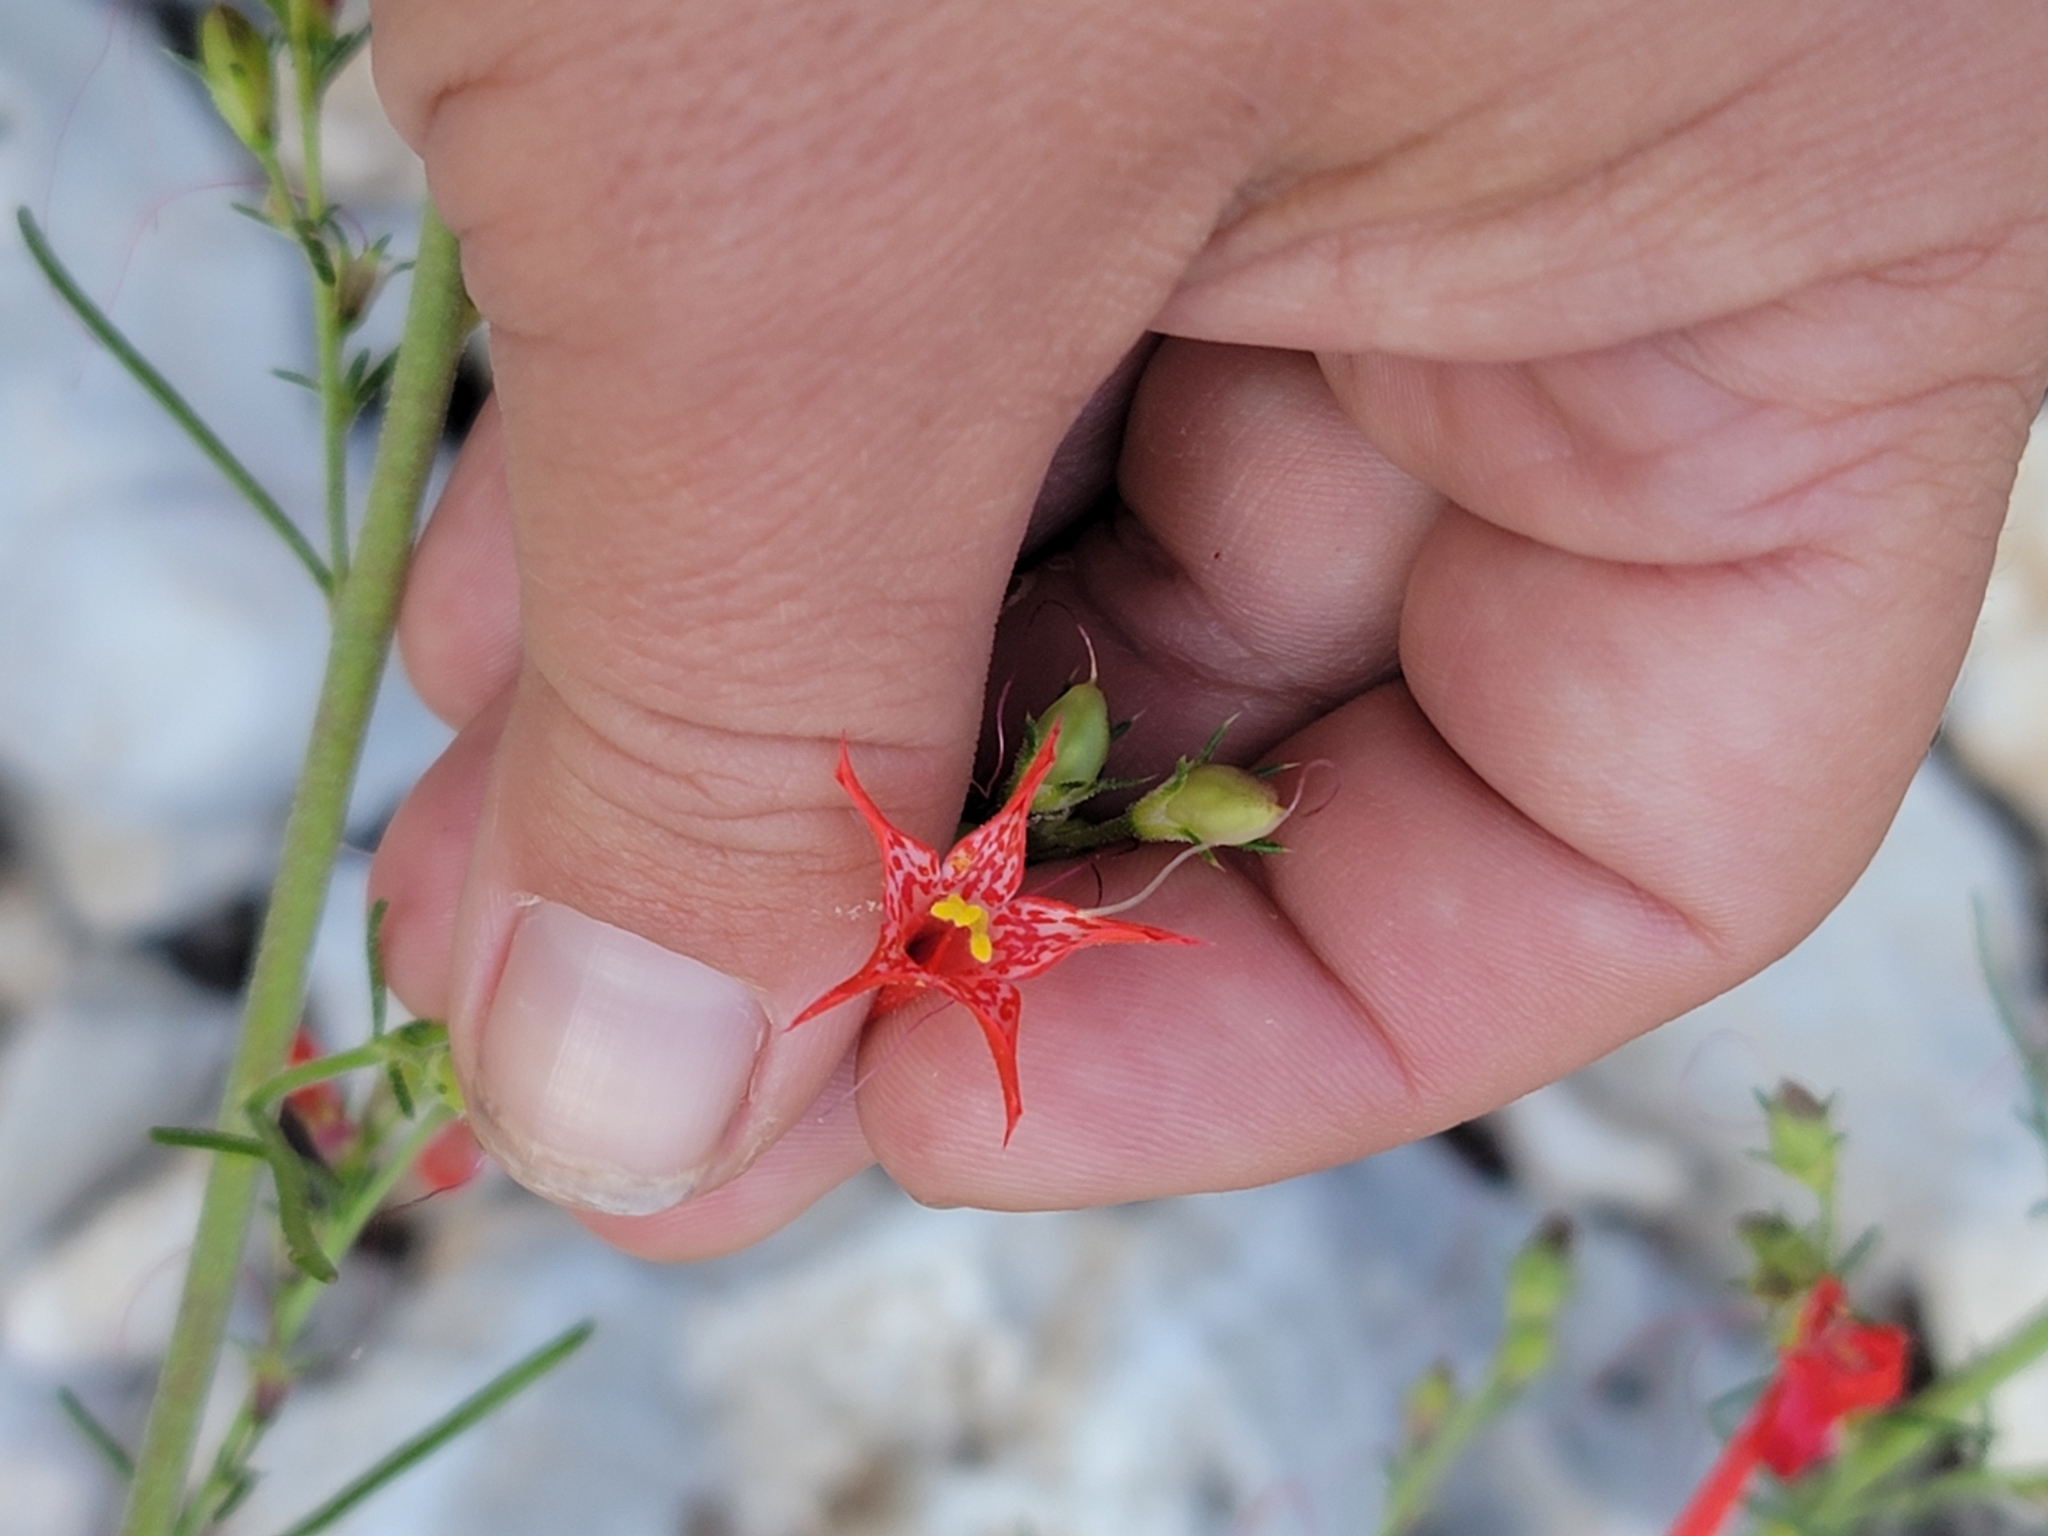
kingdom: Plantae
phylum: Tracheophyta
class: Magnoliopsida
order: Ericales
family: Polemoniaceae
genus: Ipomopsis
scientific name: Ipomopsis aggregata
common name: Scarlet gilia
